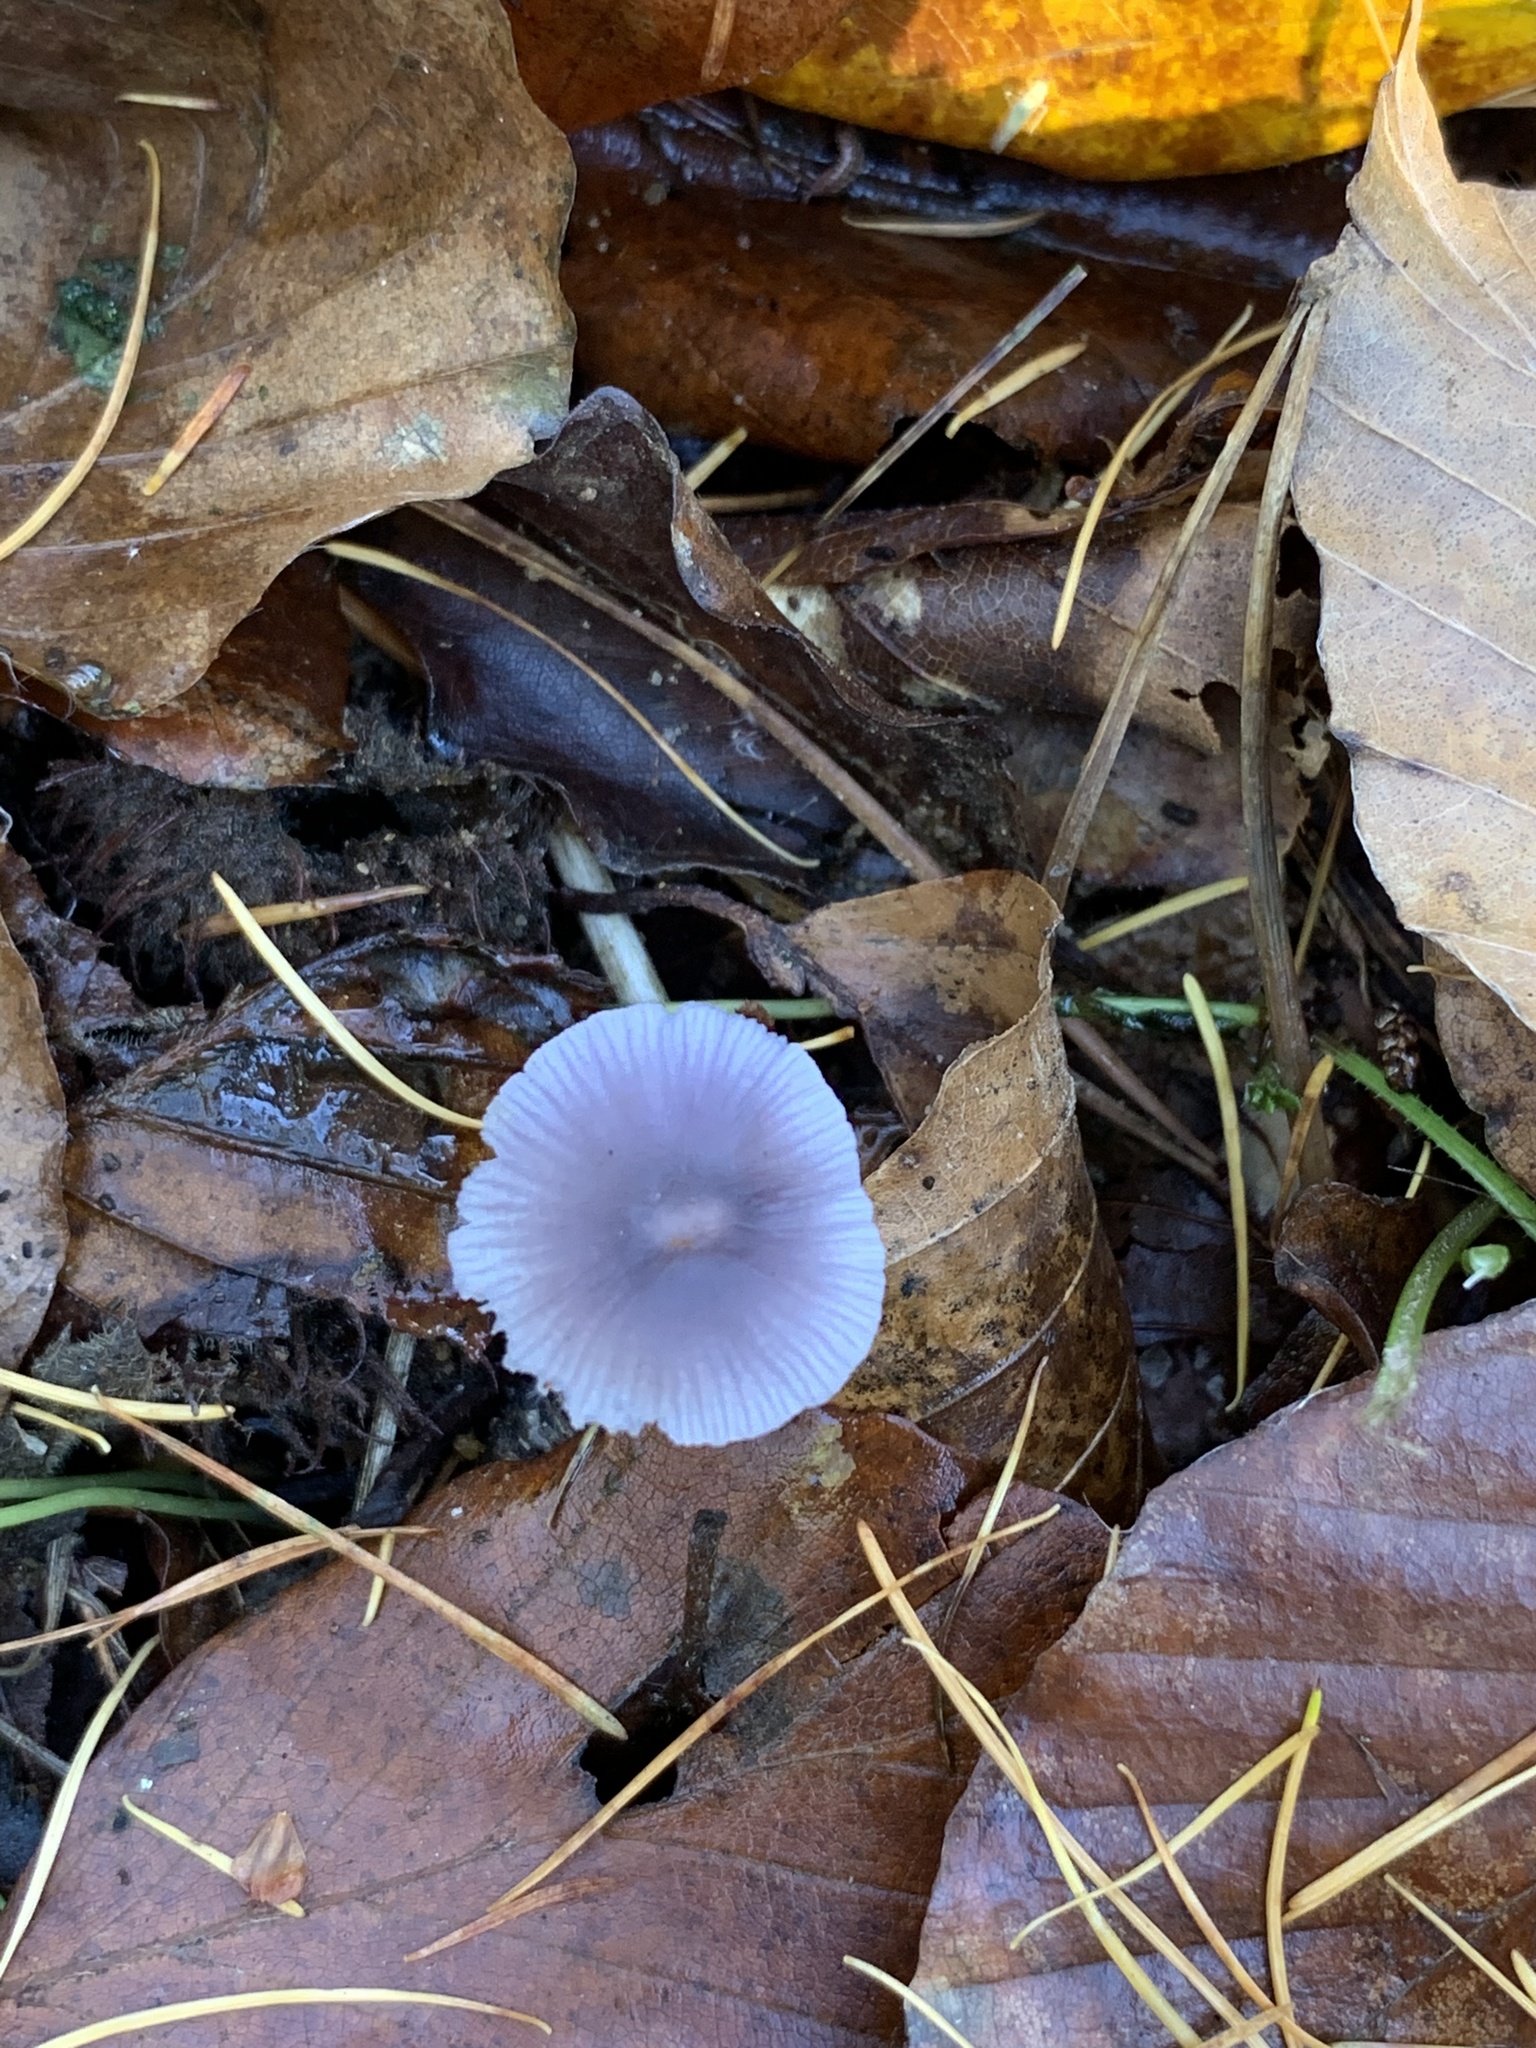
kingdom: Fungi
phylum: Basidiomycota
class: Agaricomycetes
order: Agaricales
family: Mycenaceae
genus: Mycena
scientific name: Mycena pearsoniana
